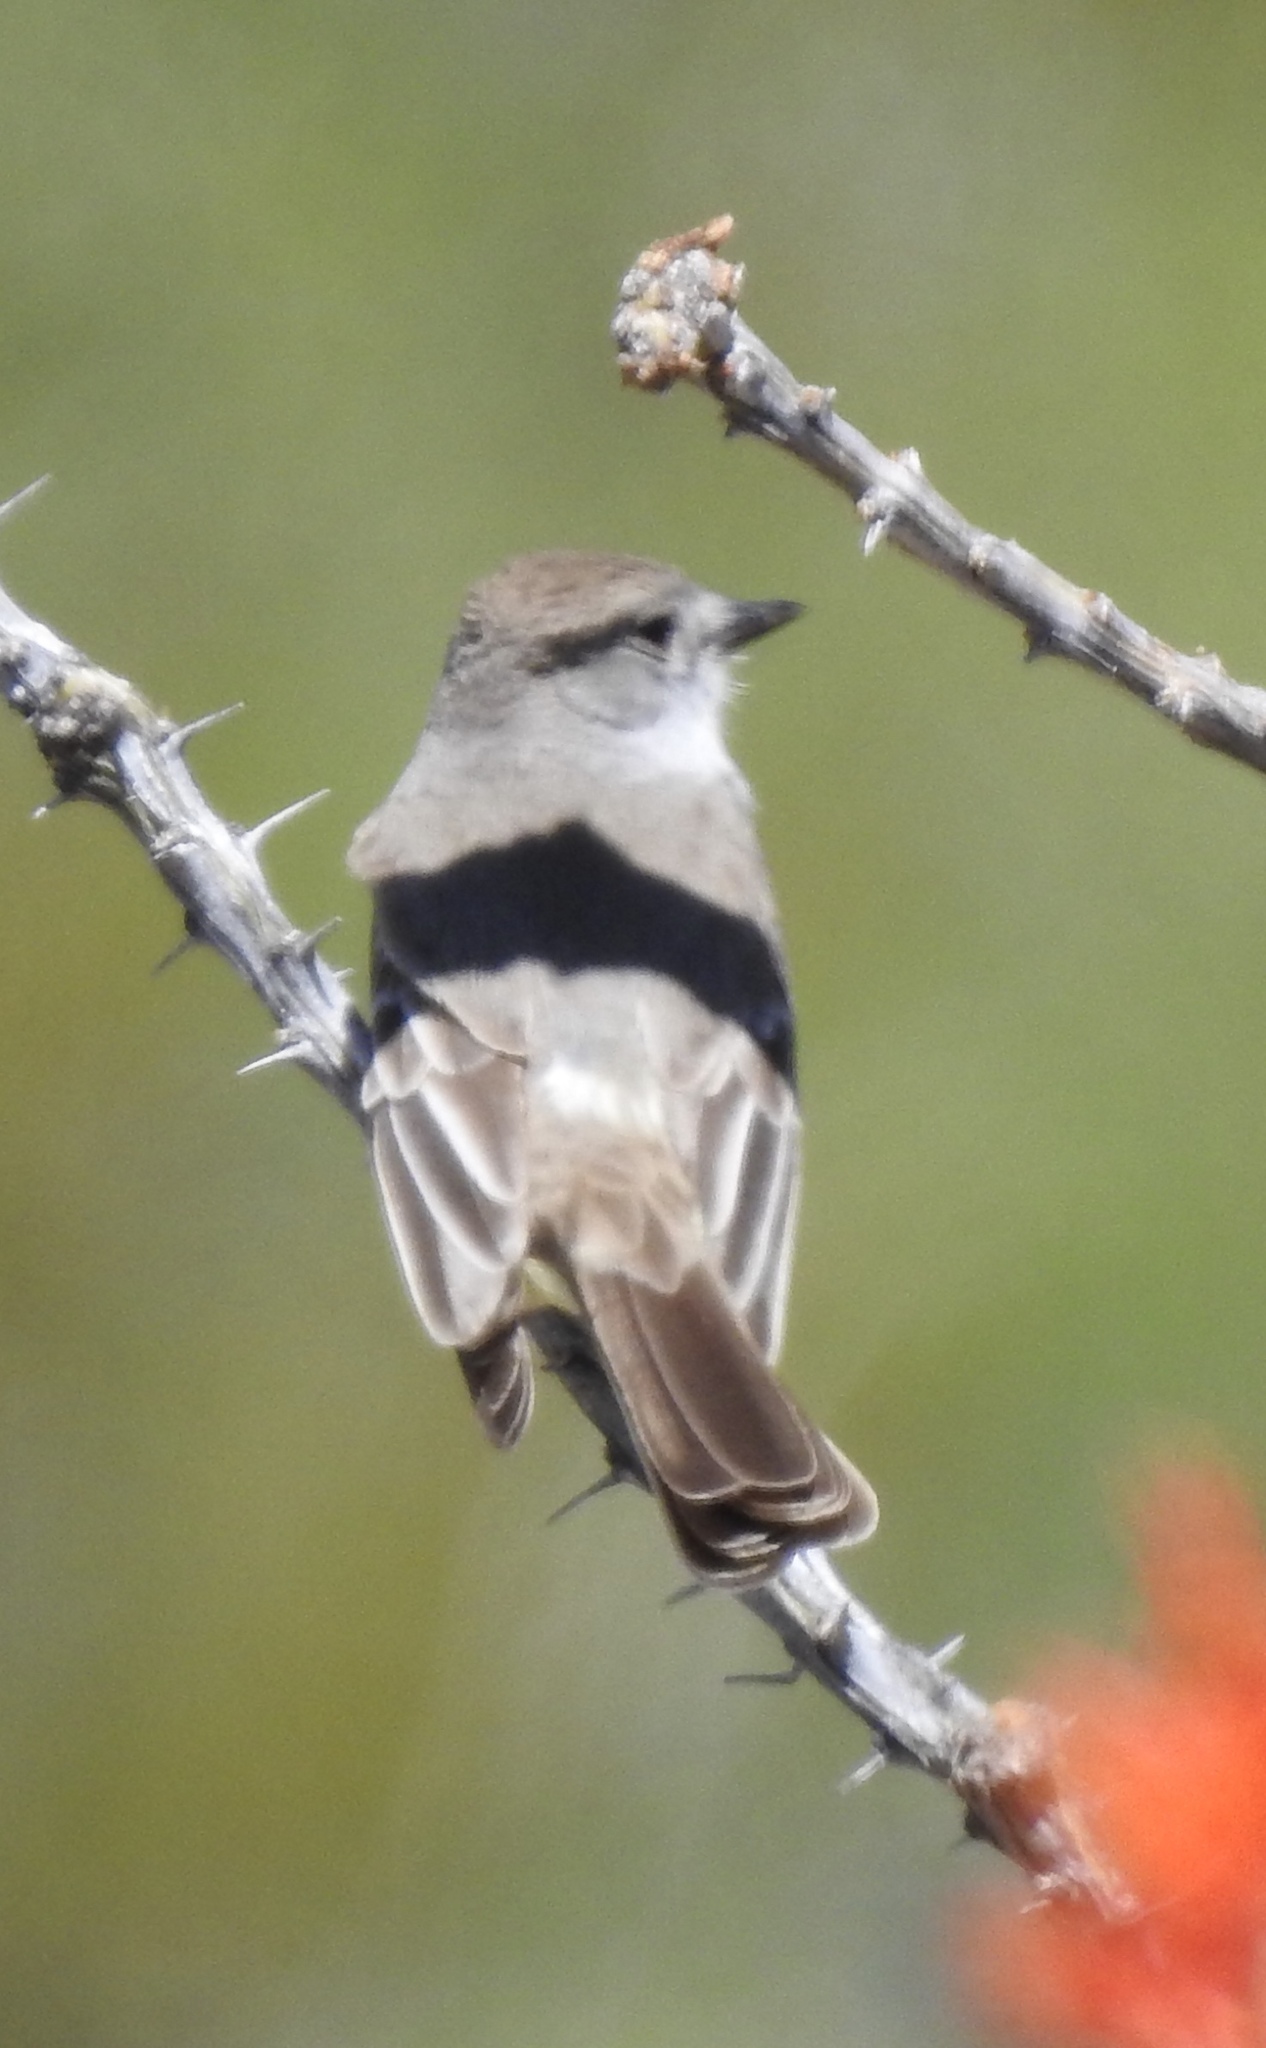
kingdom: Animalia
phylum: Chordata
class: Aves
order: Passeriformes
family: Tyrannidae
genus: Myiarchus
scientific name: Myiarchus cinerascens
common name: Ash-throated flycatcher
